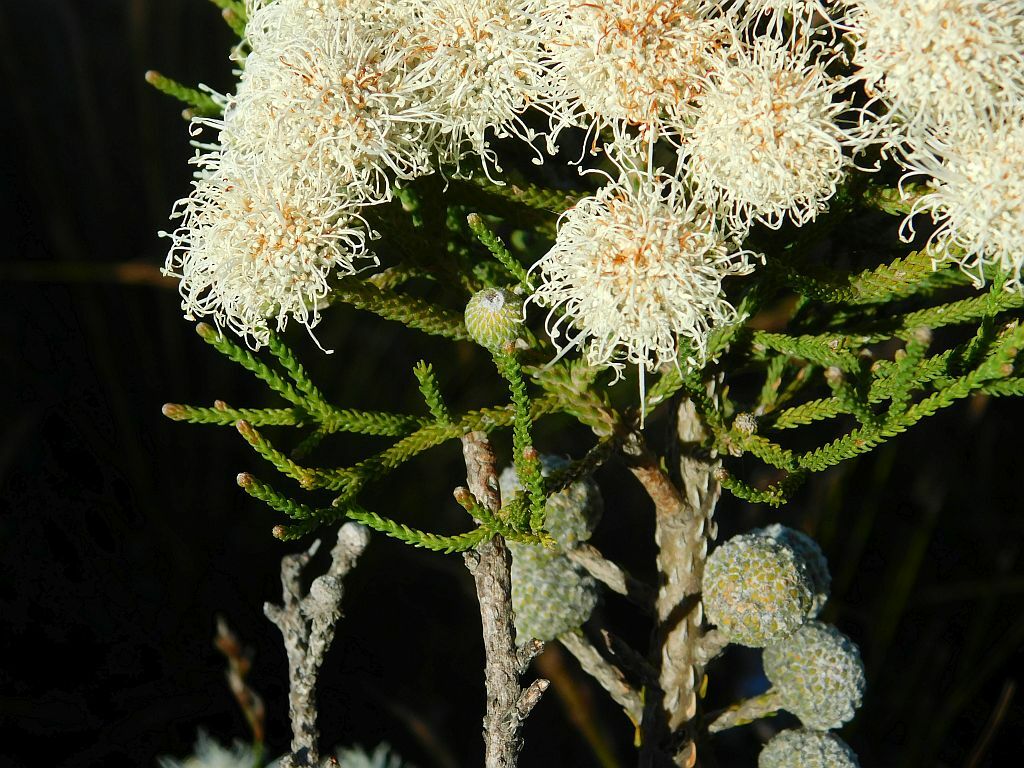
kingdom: Plantae
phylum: Tracheophyta
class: Magnoliopsida
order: Bruniales
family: Bruniaceae
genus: Brunia
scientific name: Brunia noduliflora
